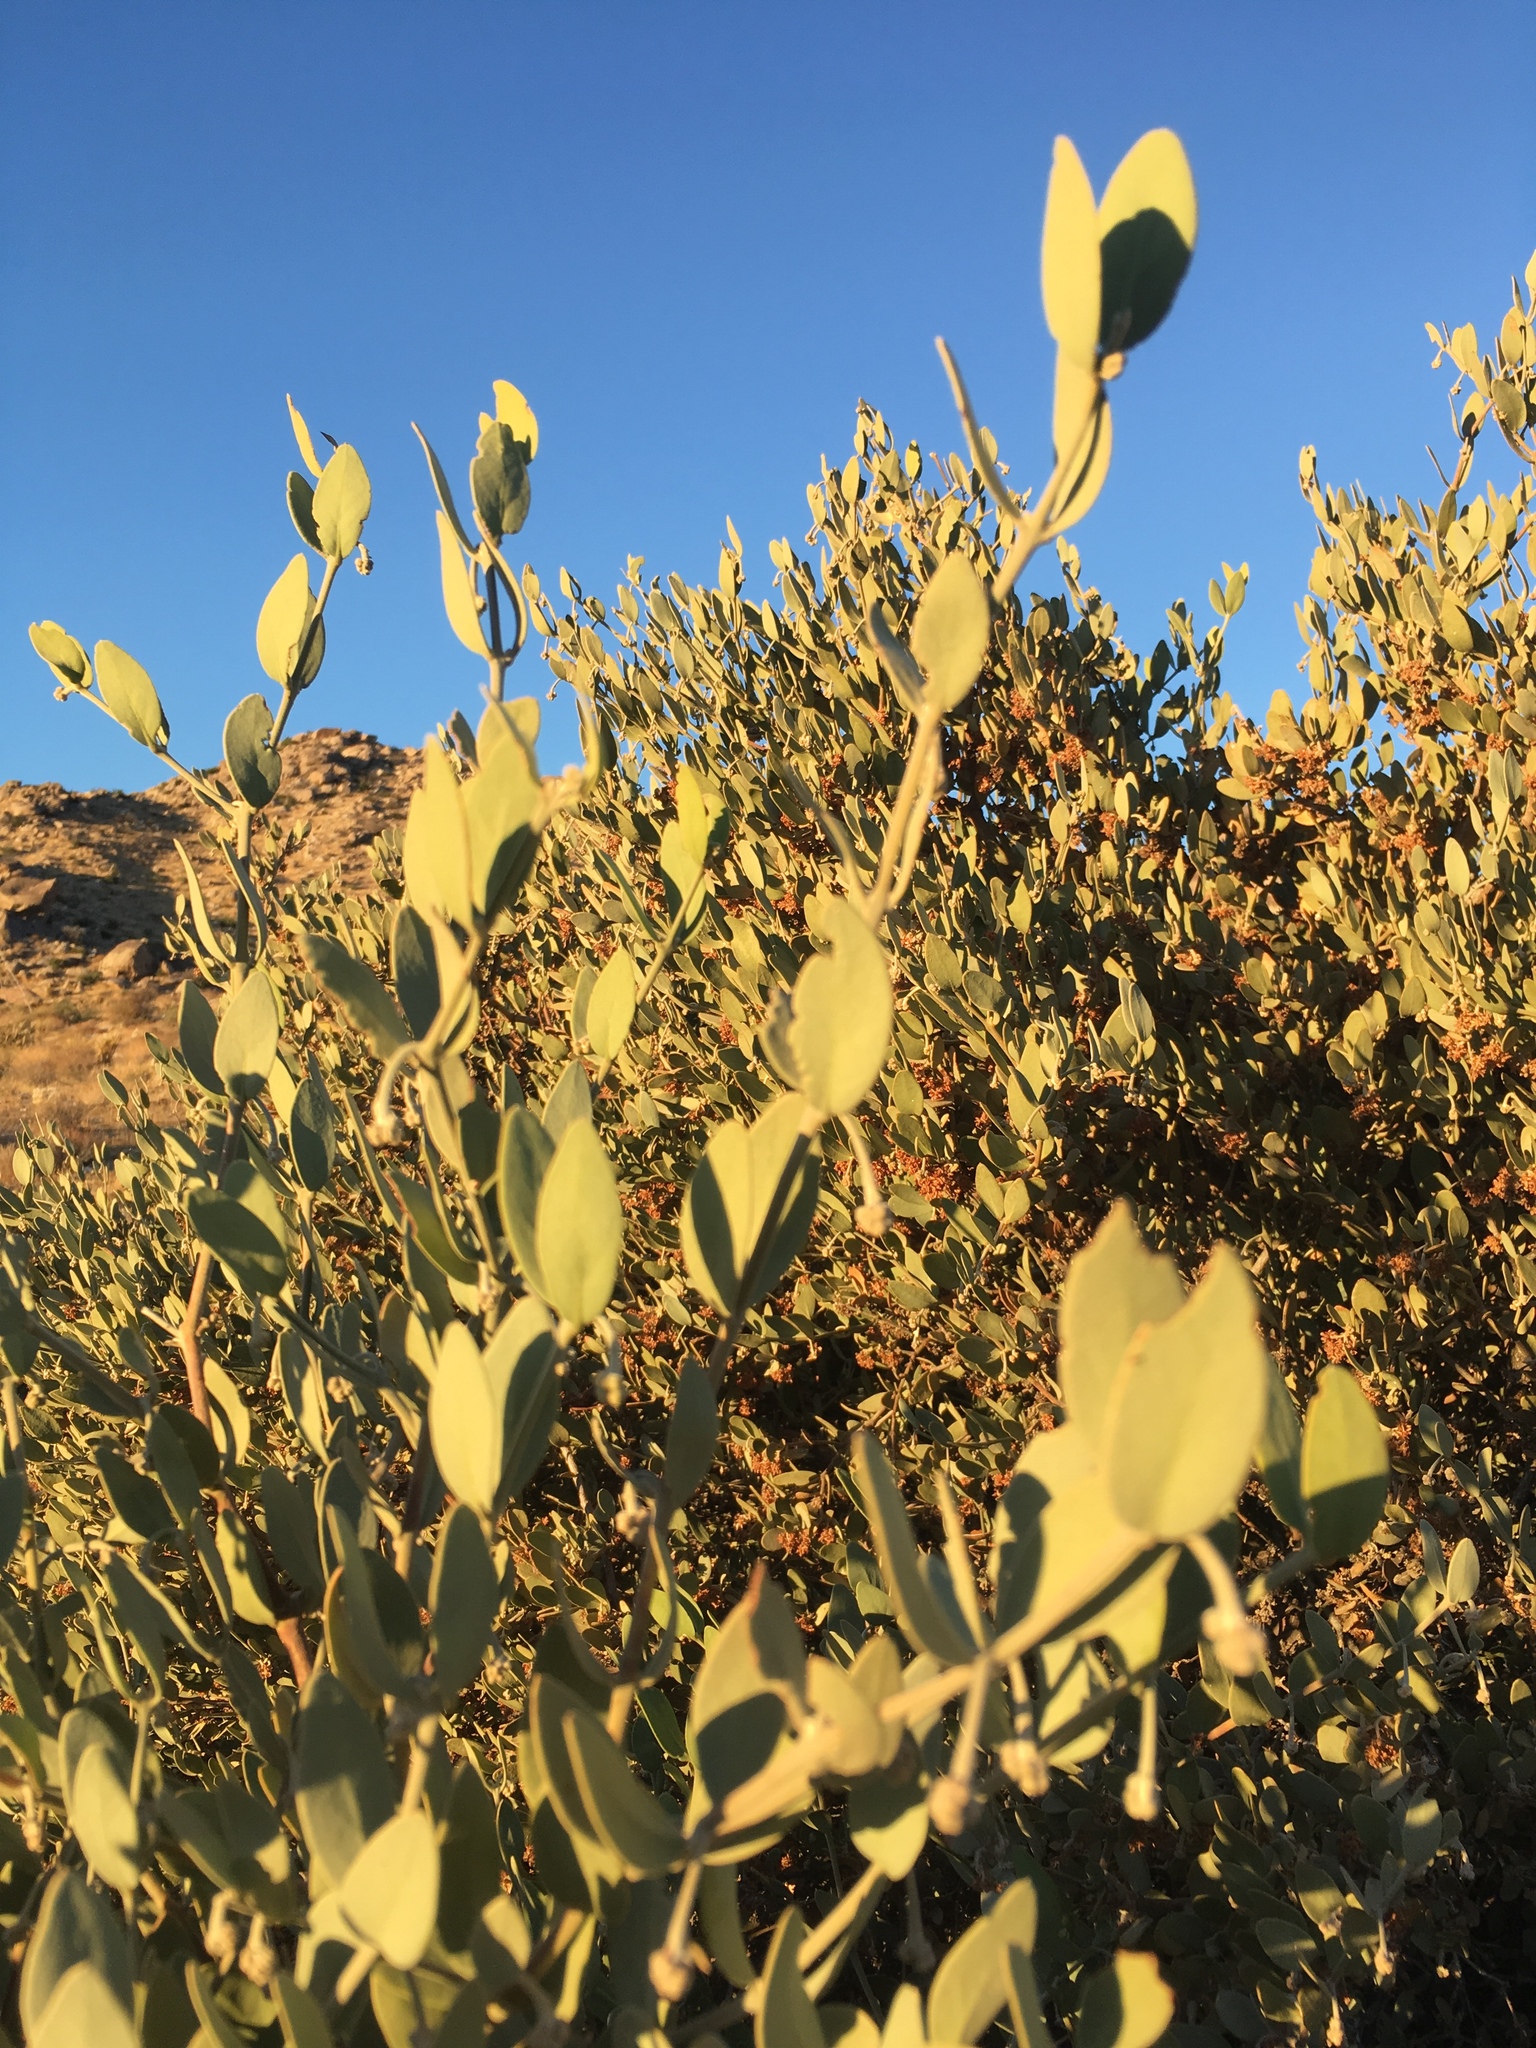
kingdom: Plantae
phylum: Tracheophyta
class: Magnoliopsida
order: Caryophyllales
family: Simmondsiaceae
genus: Simmondsia
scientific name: Simmondsia chinensis
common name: Jojoba
